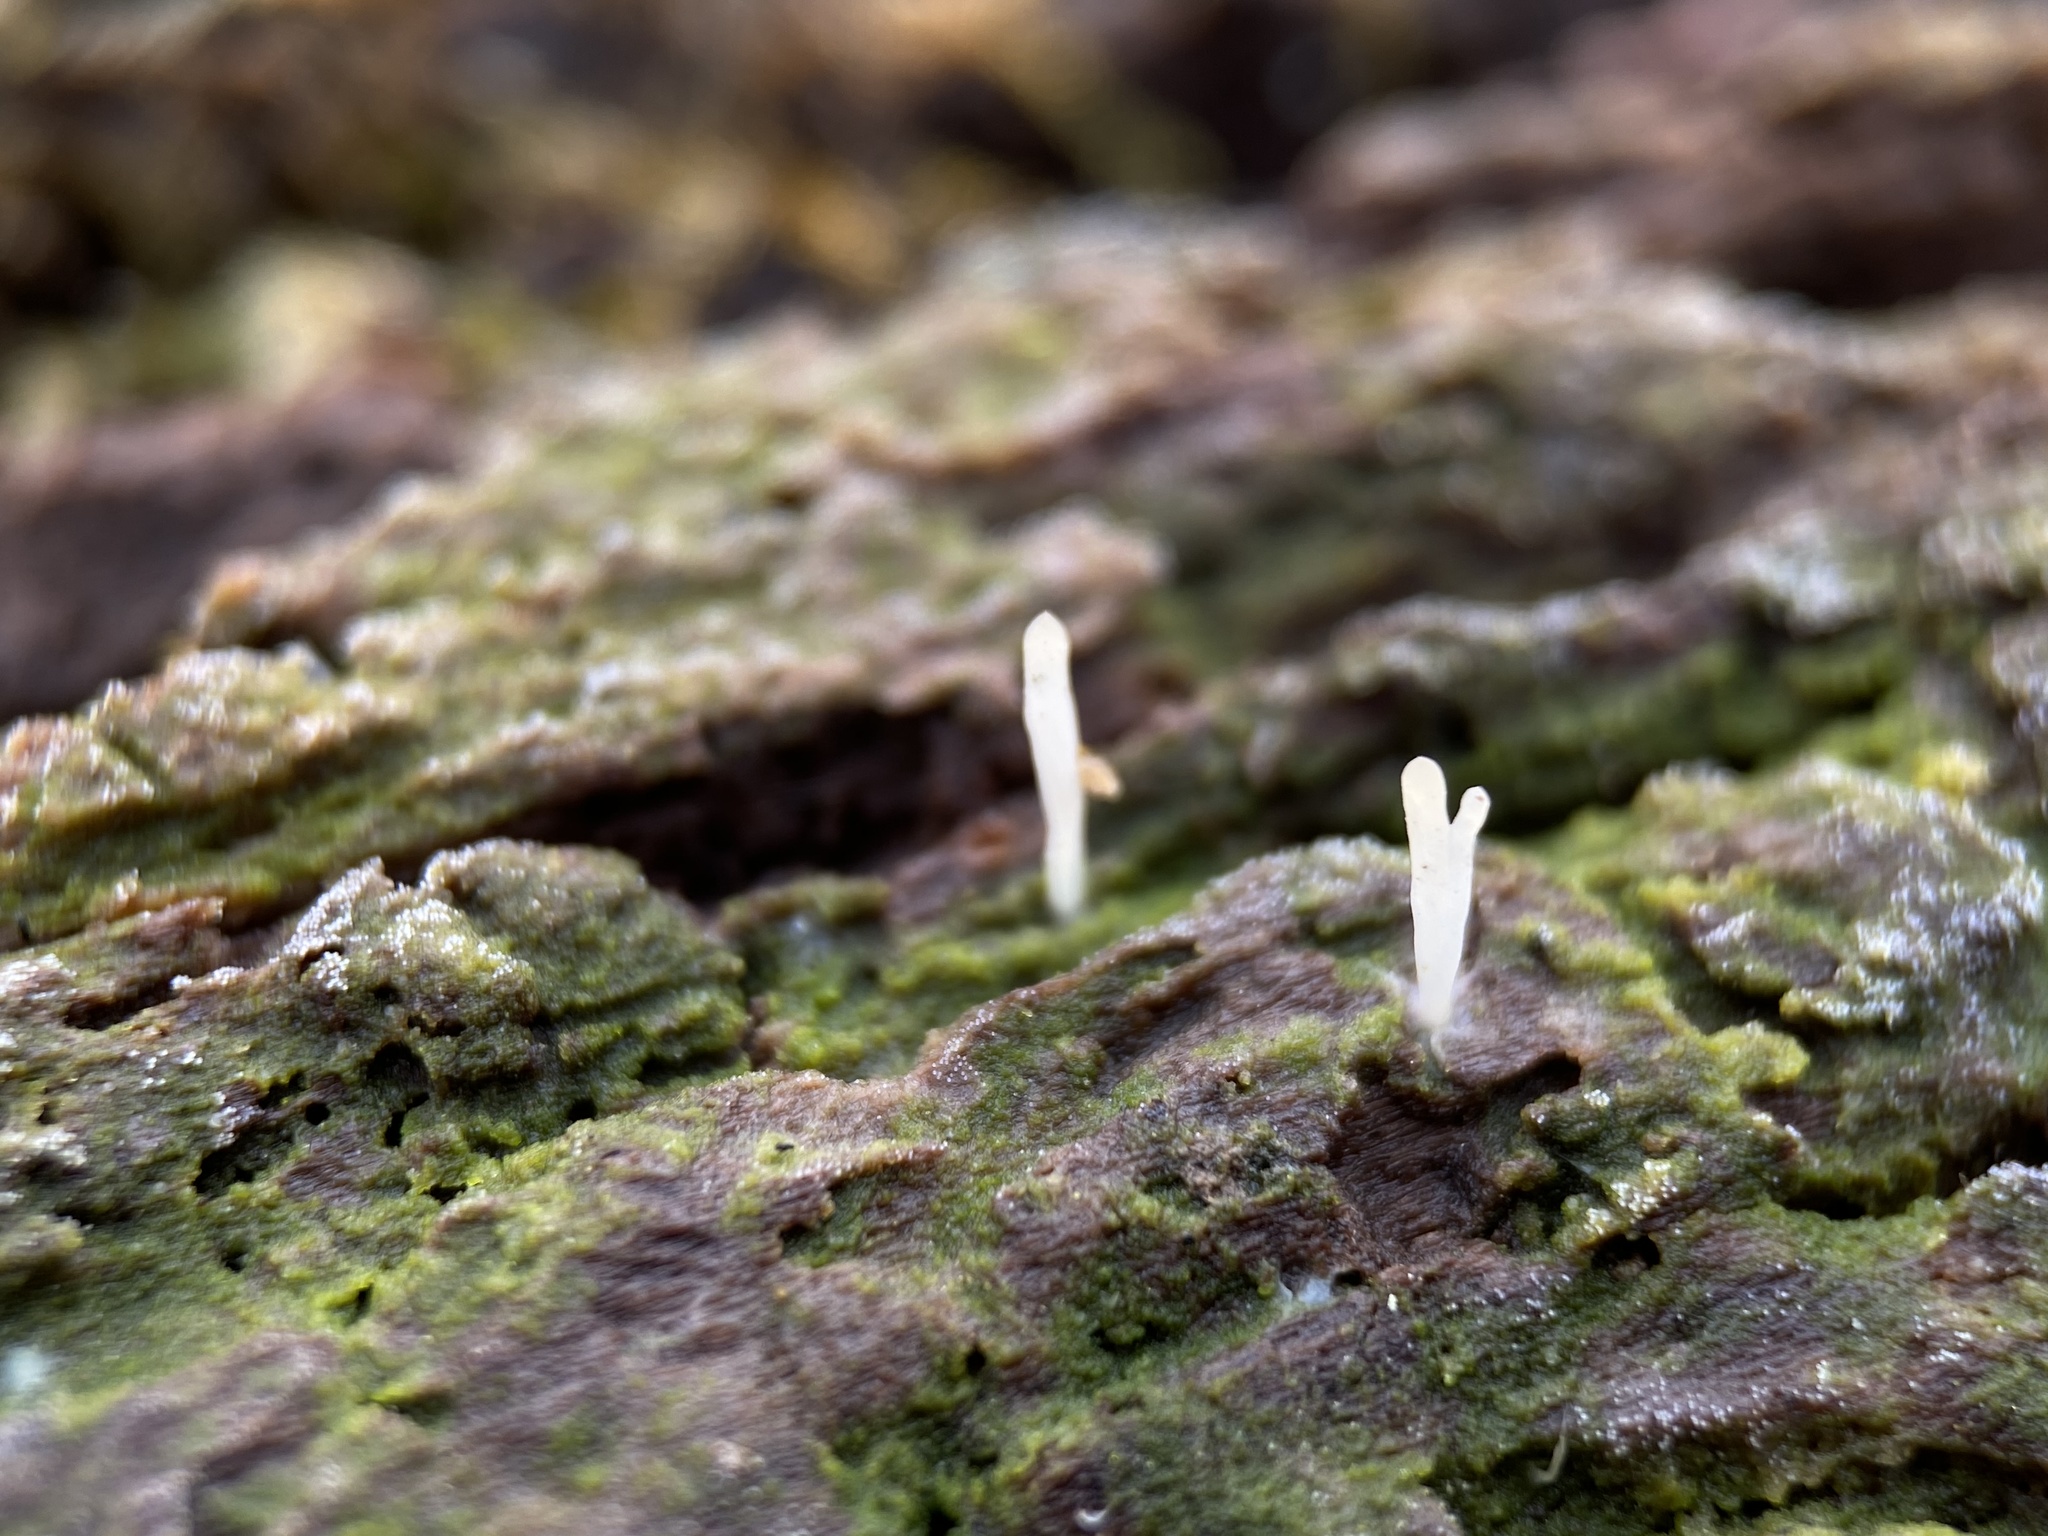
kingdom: Fungi
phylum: Basidiomycota
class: Agaricomycetes
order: Cantharellales
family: Hydnaceae
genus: Multiclavula
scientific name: Multiclavula mucida
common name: White green-algae coral
